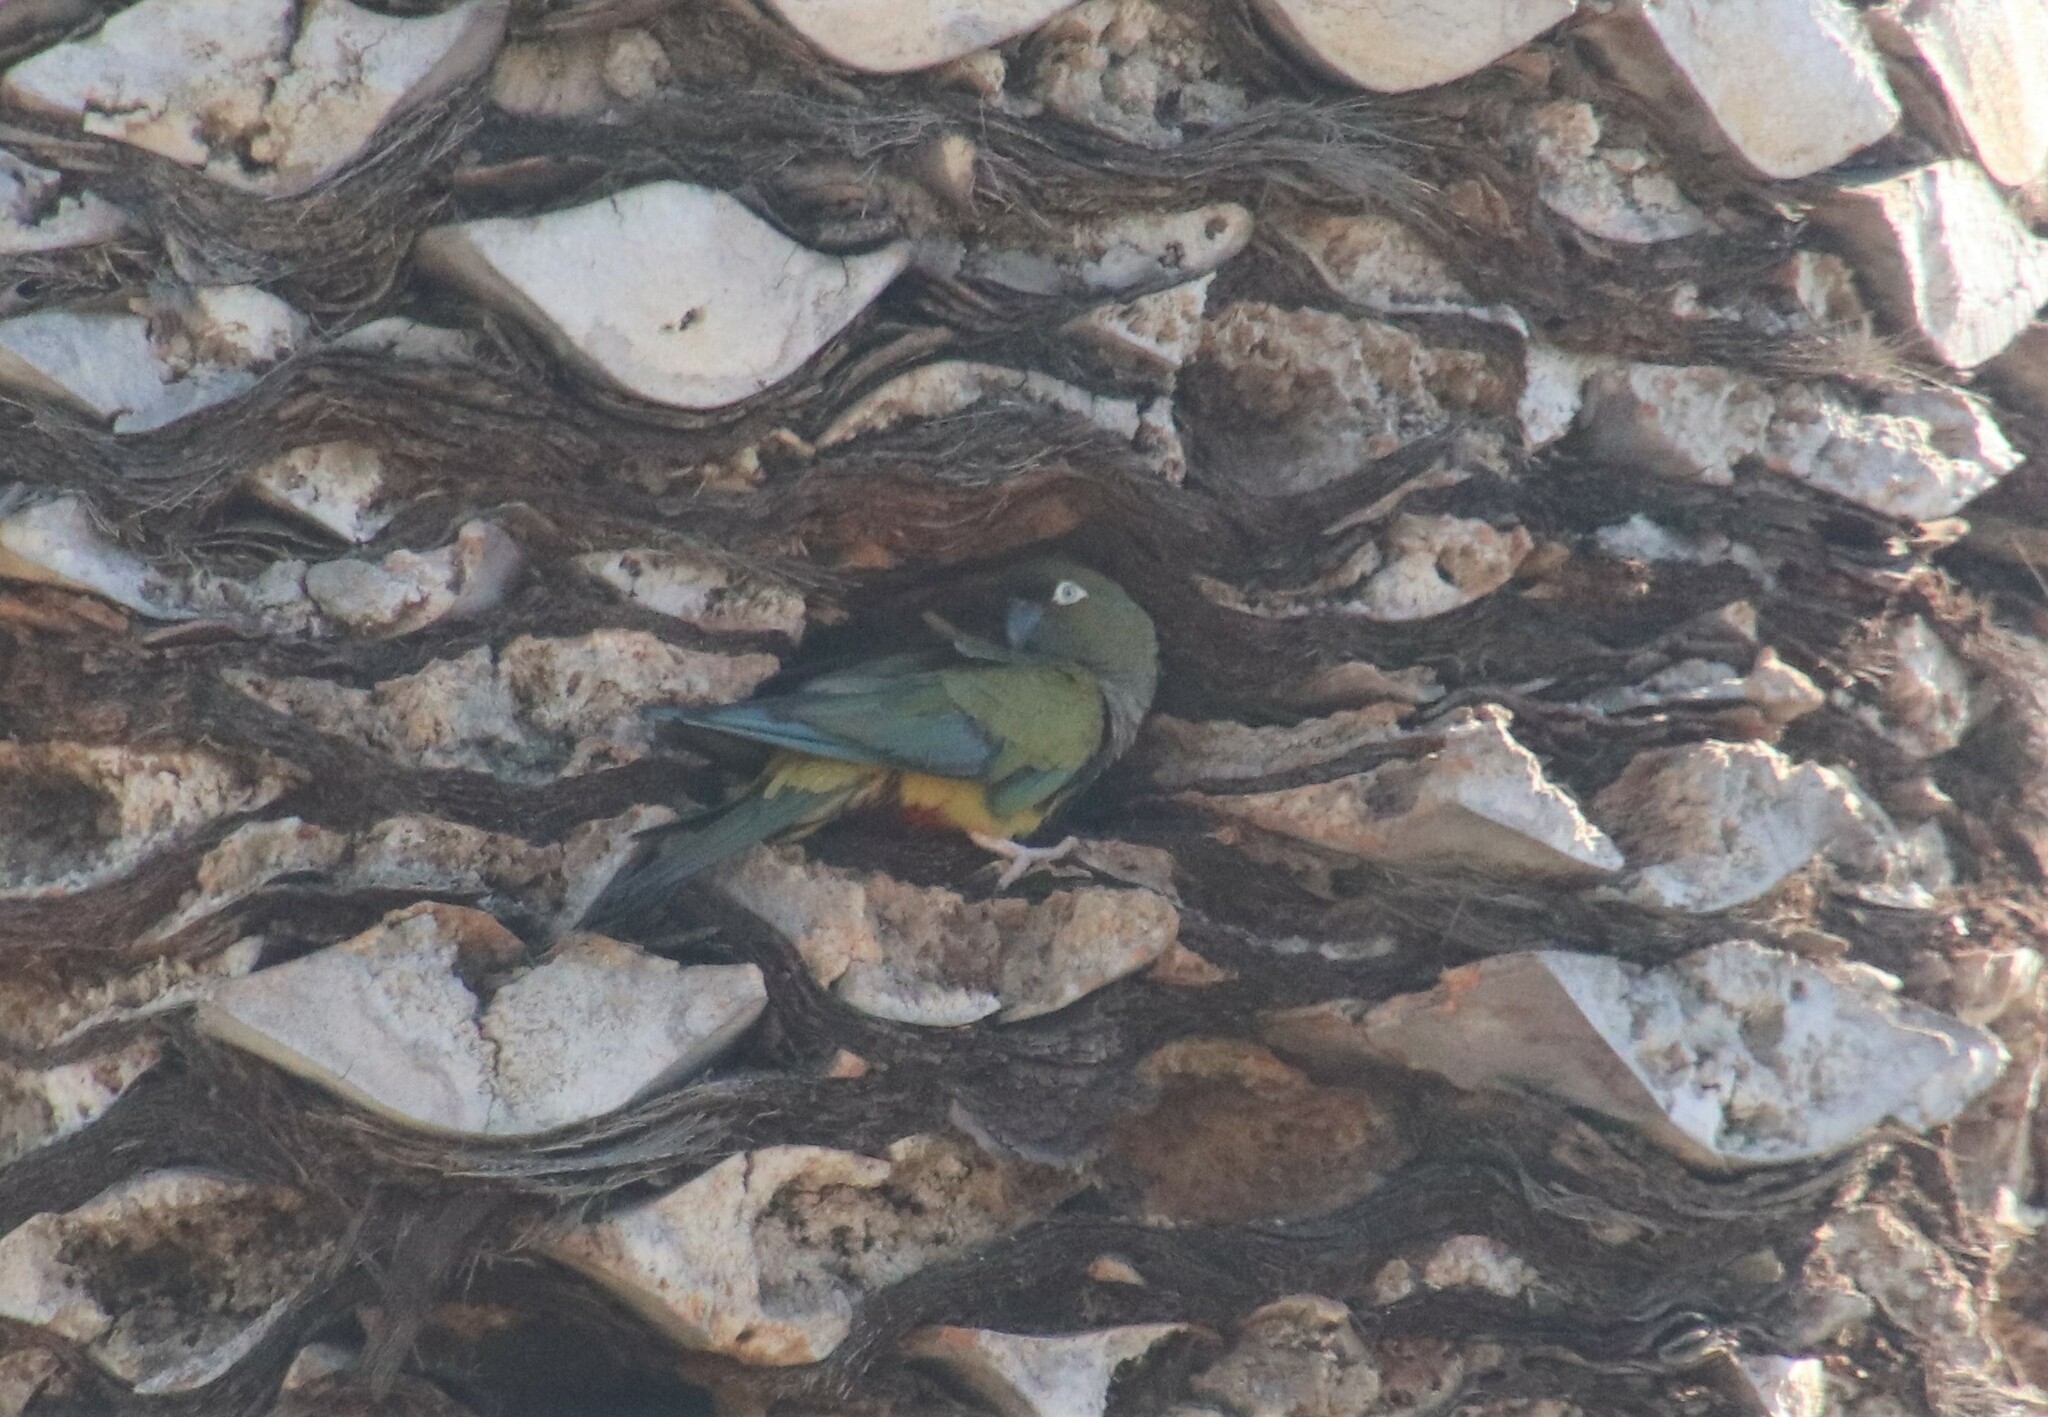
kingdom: Animalia
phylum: Chordata
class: Aves
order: Psittaciformes
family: Psittacidae
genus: Cyanoliseus
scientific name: Cyanoliseus patagonus
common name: Burrowing parrot
